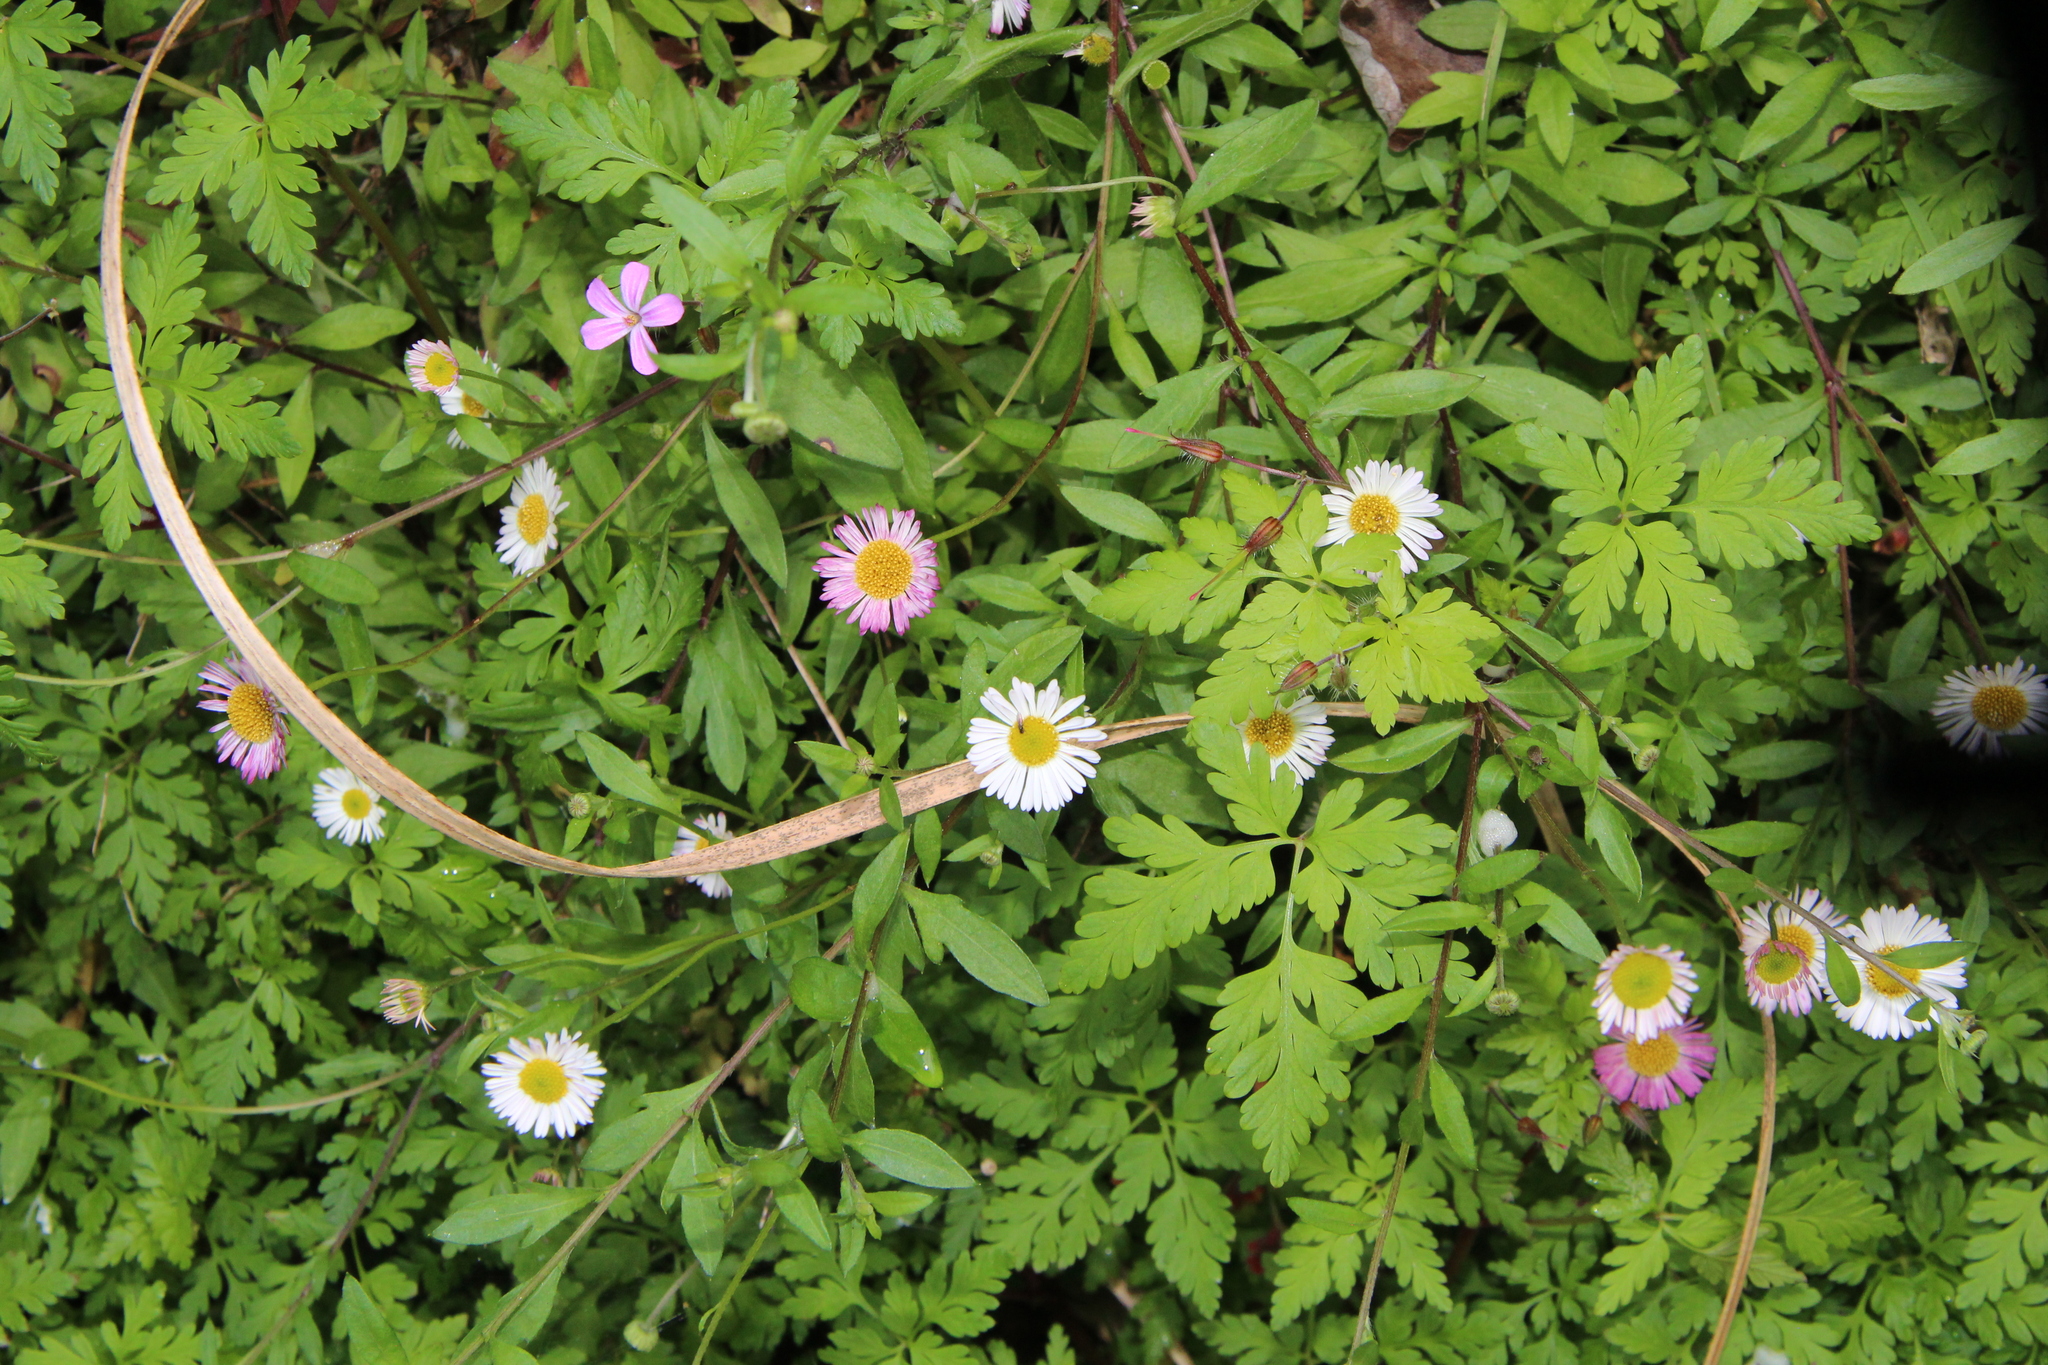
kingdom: Plantae
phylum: Tracheophyta
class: Magnoliopsida
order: Asterales
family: Asteraceae
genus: Erigeron
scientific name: Erigeron karvinskianus
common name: Mexican fleabane
